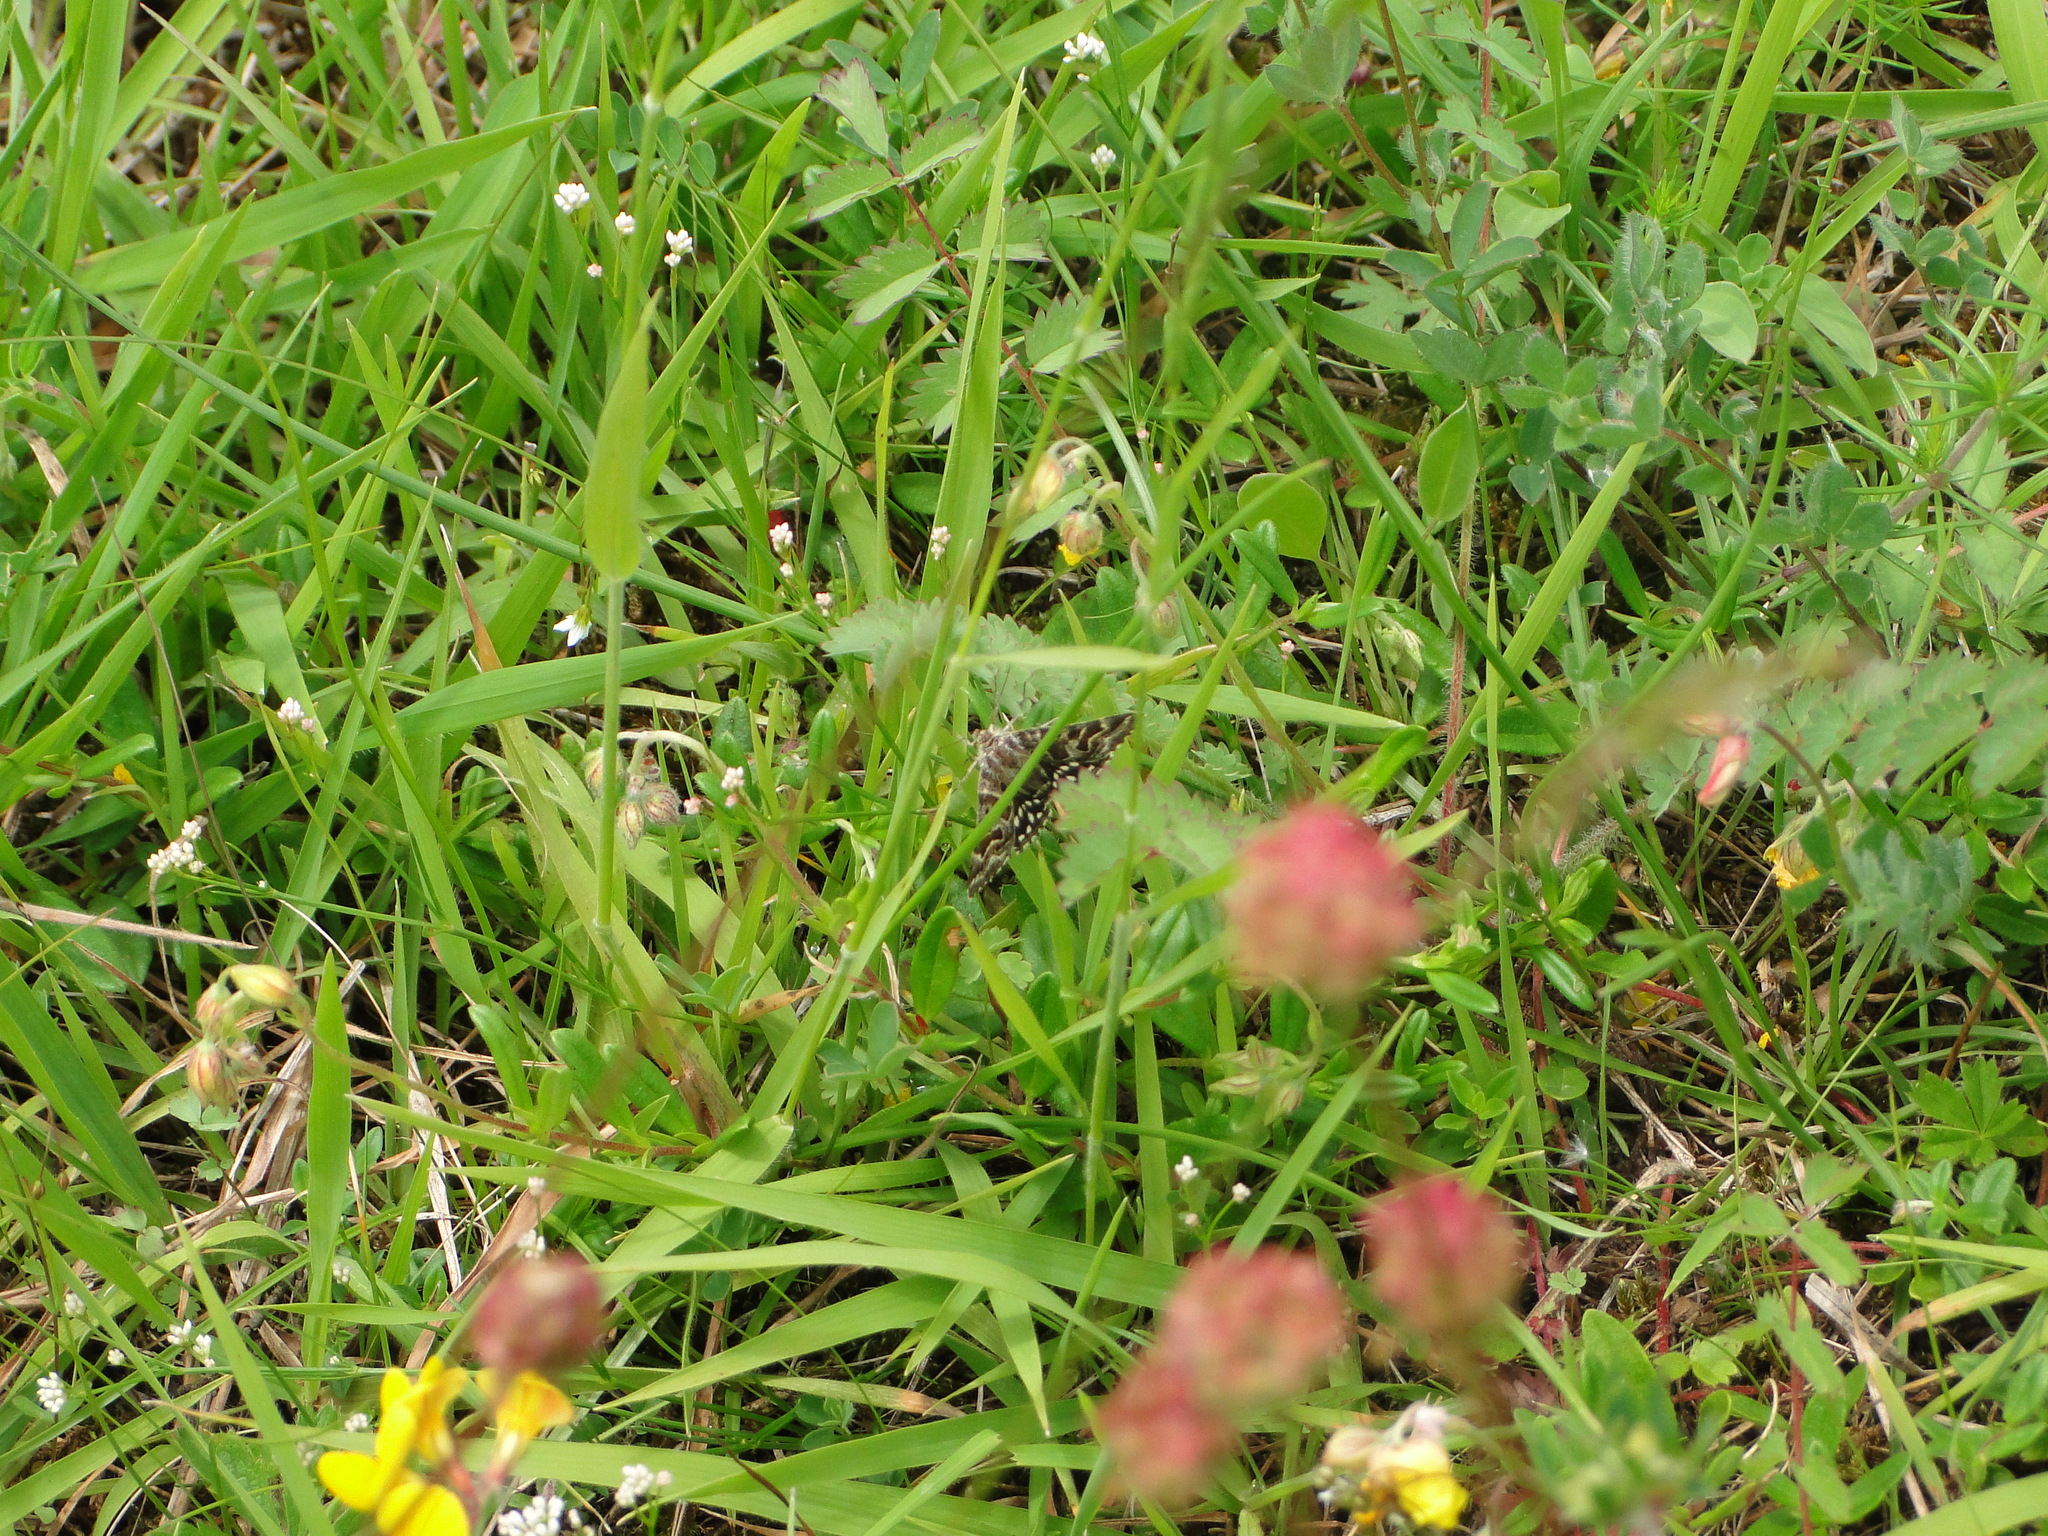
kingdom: Animalia
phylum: Arthropoda
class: Insecta
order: Lepidoptera
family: Erebidae
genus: Callistege
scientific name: Callistege mi
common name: Mother shipton
